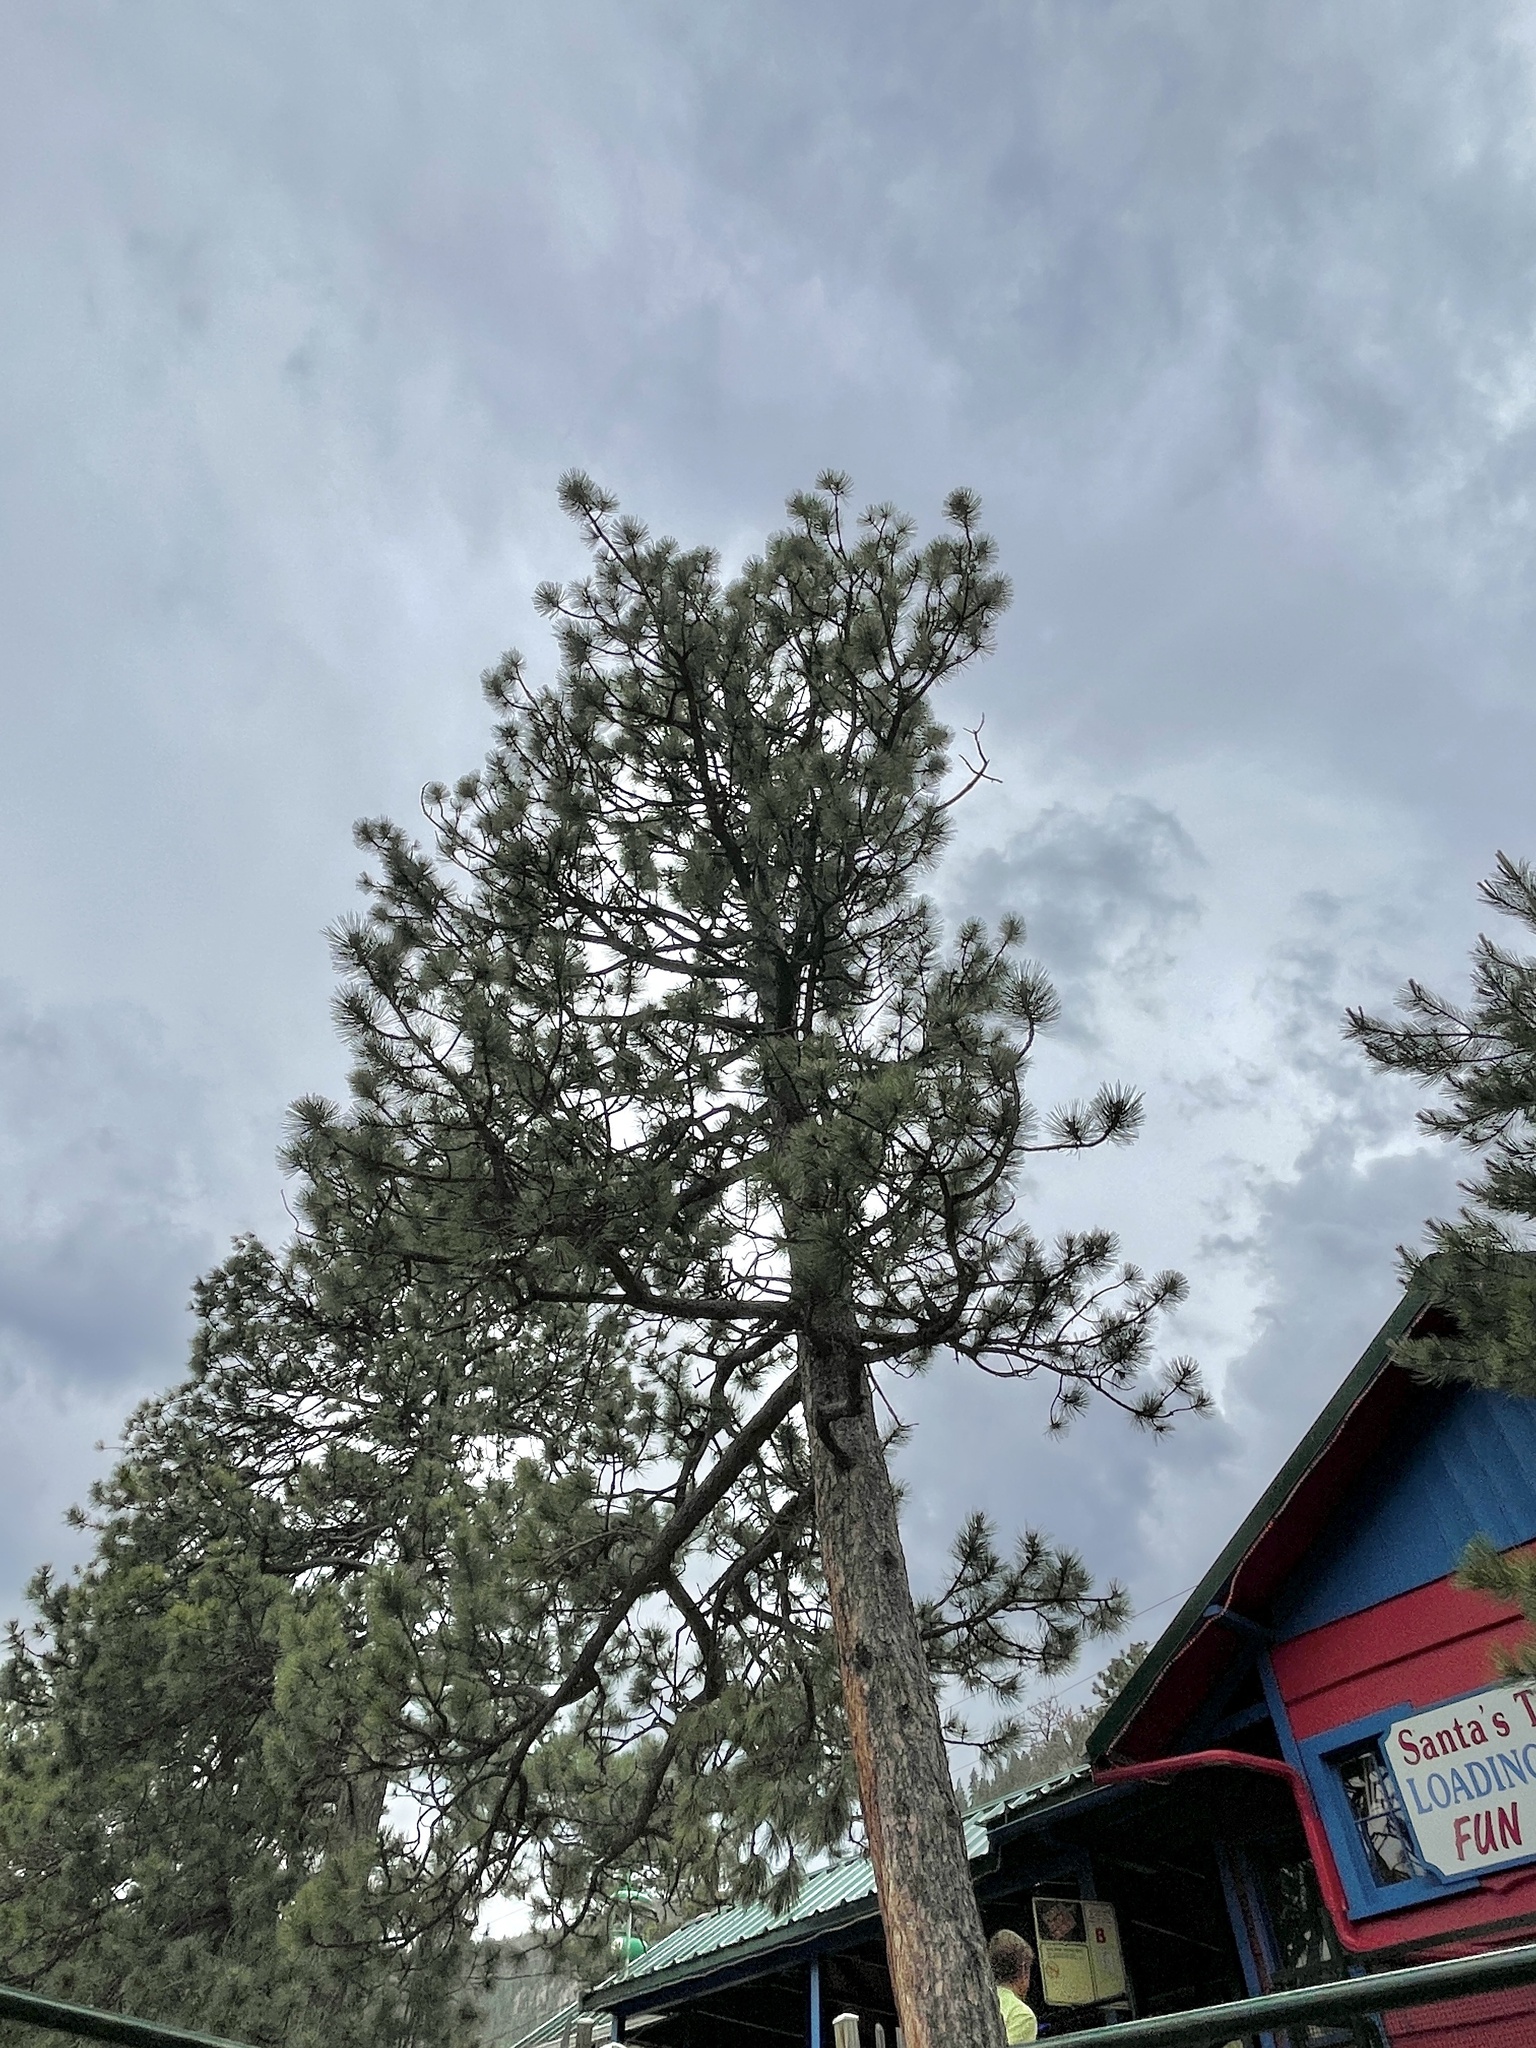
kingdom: Plantae
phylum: Tracheophyta
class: Pinopsida
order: Pinales
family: Pinaceae
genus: Pinus
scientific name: Pinus ponderosa
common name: Western yellow-pine
